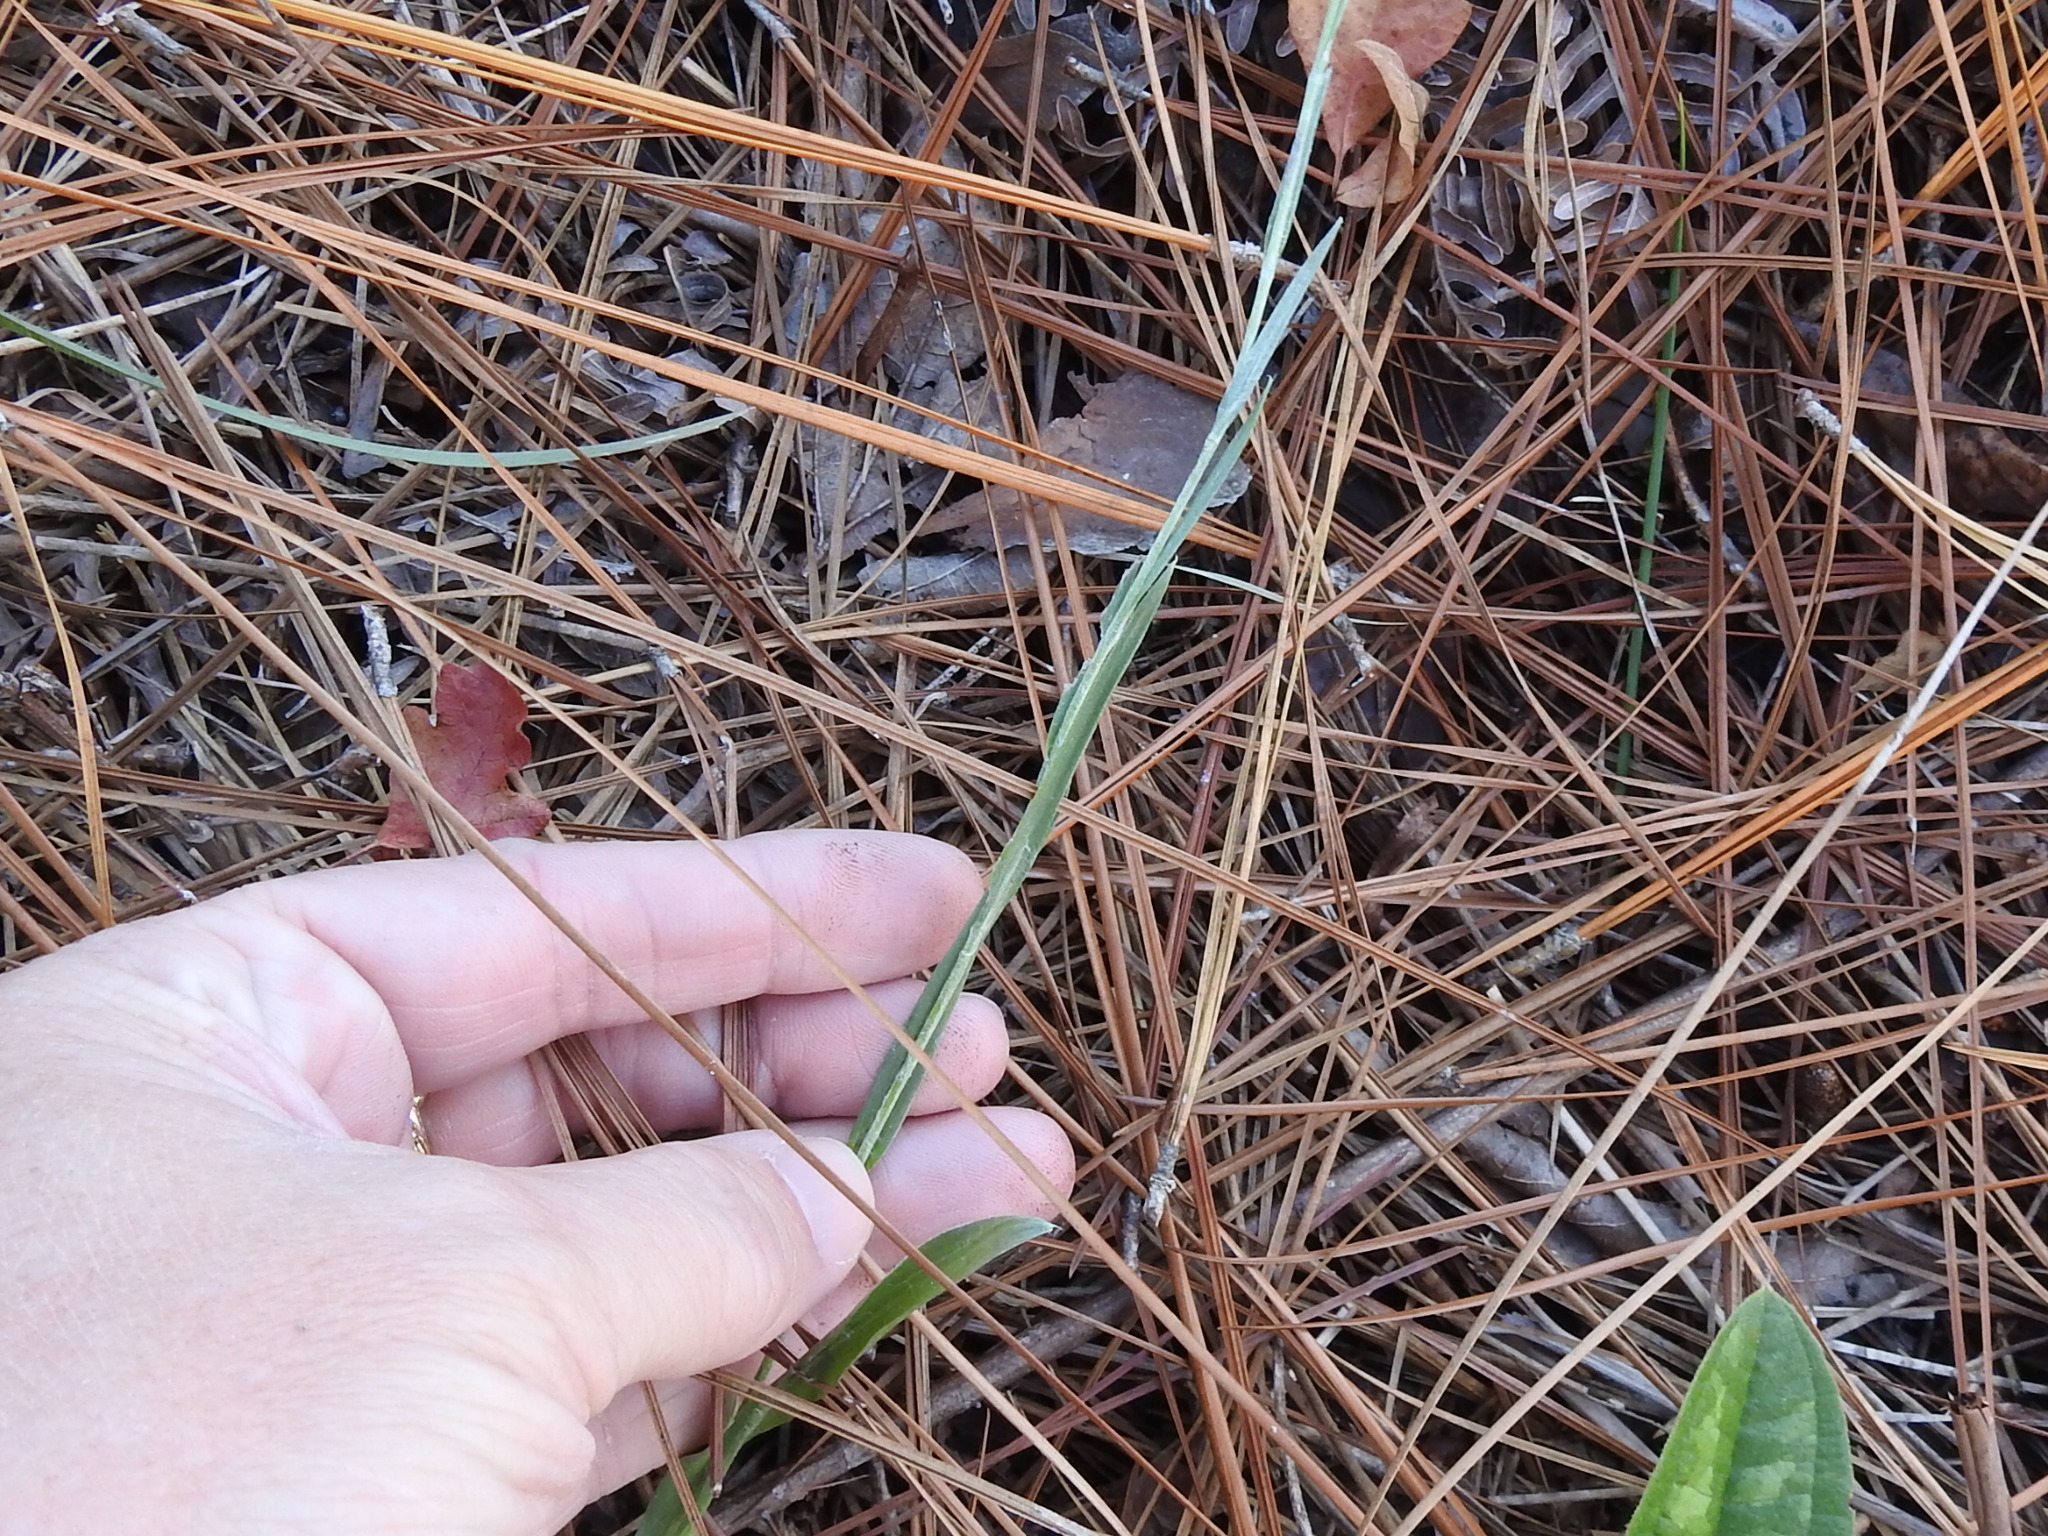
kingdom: Plantae
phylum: Tracheophyta
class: Magnoliopsida
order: Asterales
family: Asteraceae
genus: Pityopsis
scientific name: Pityopsis graminifolia
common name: Grass-leaf golden-aster
